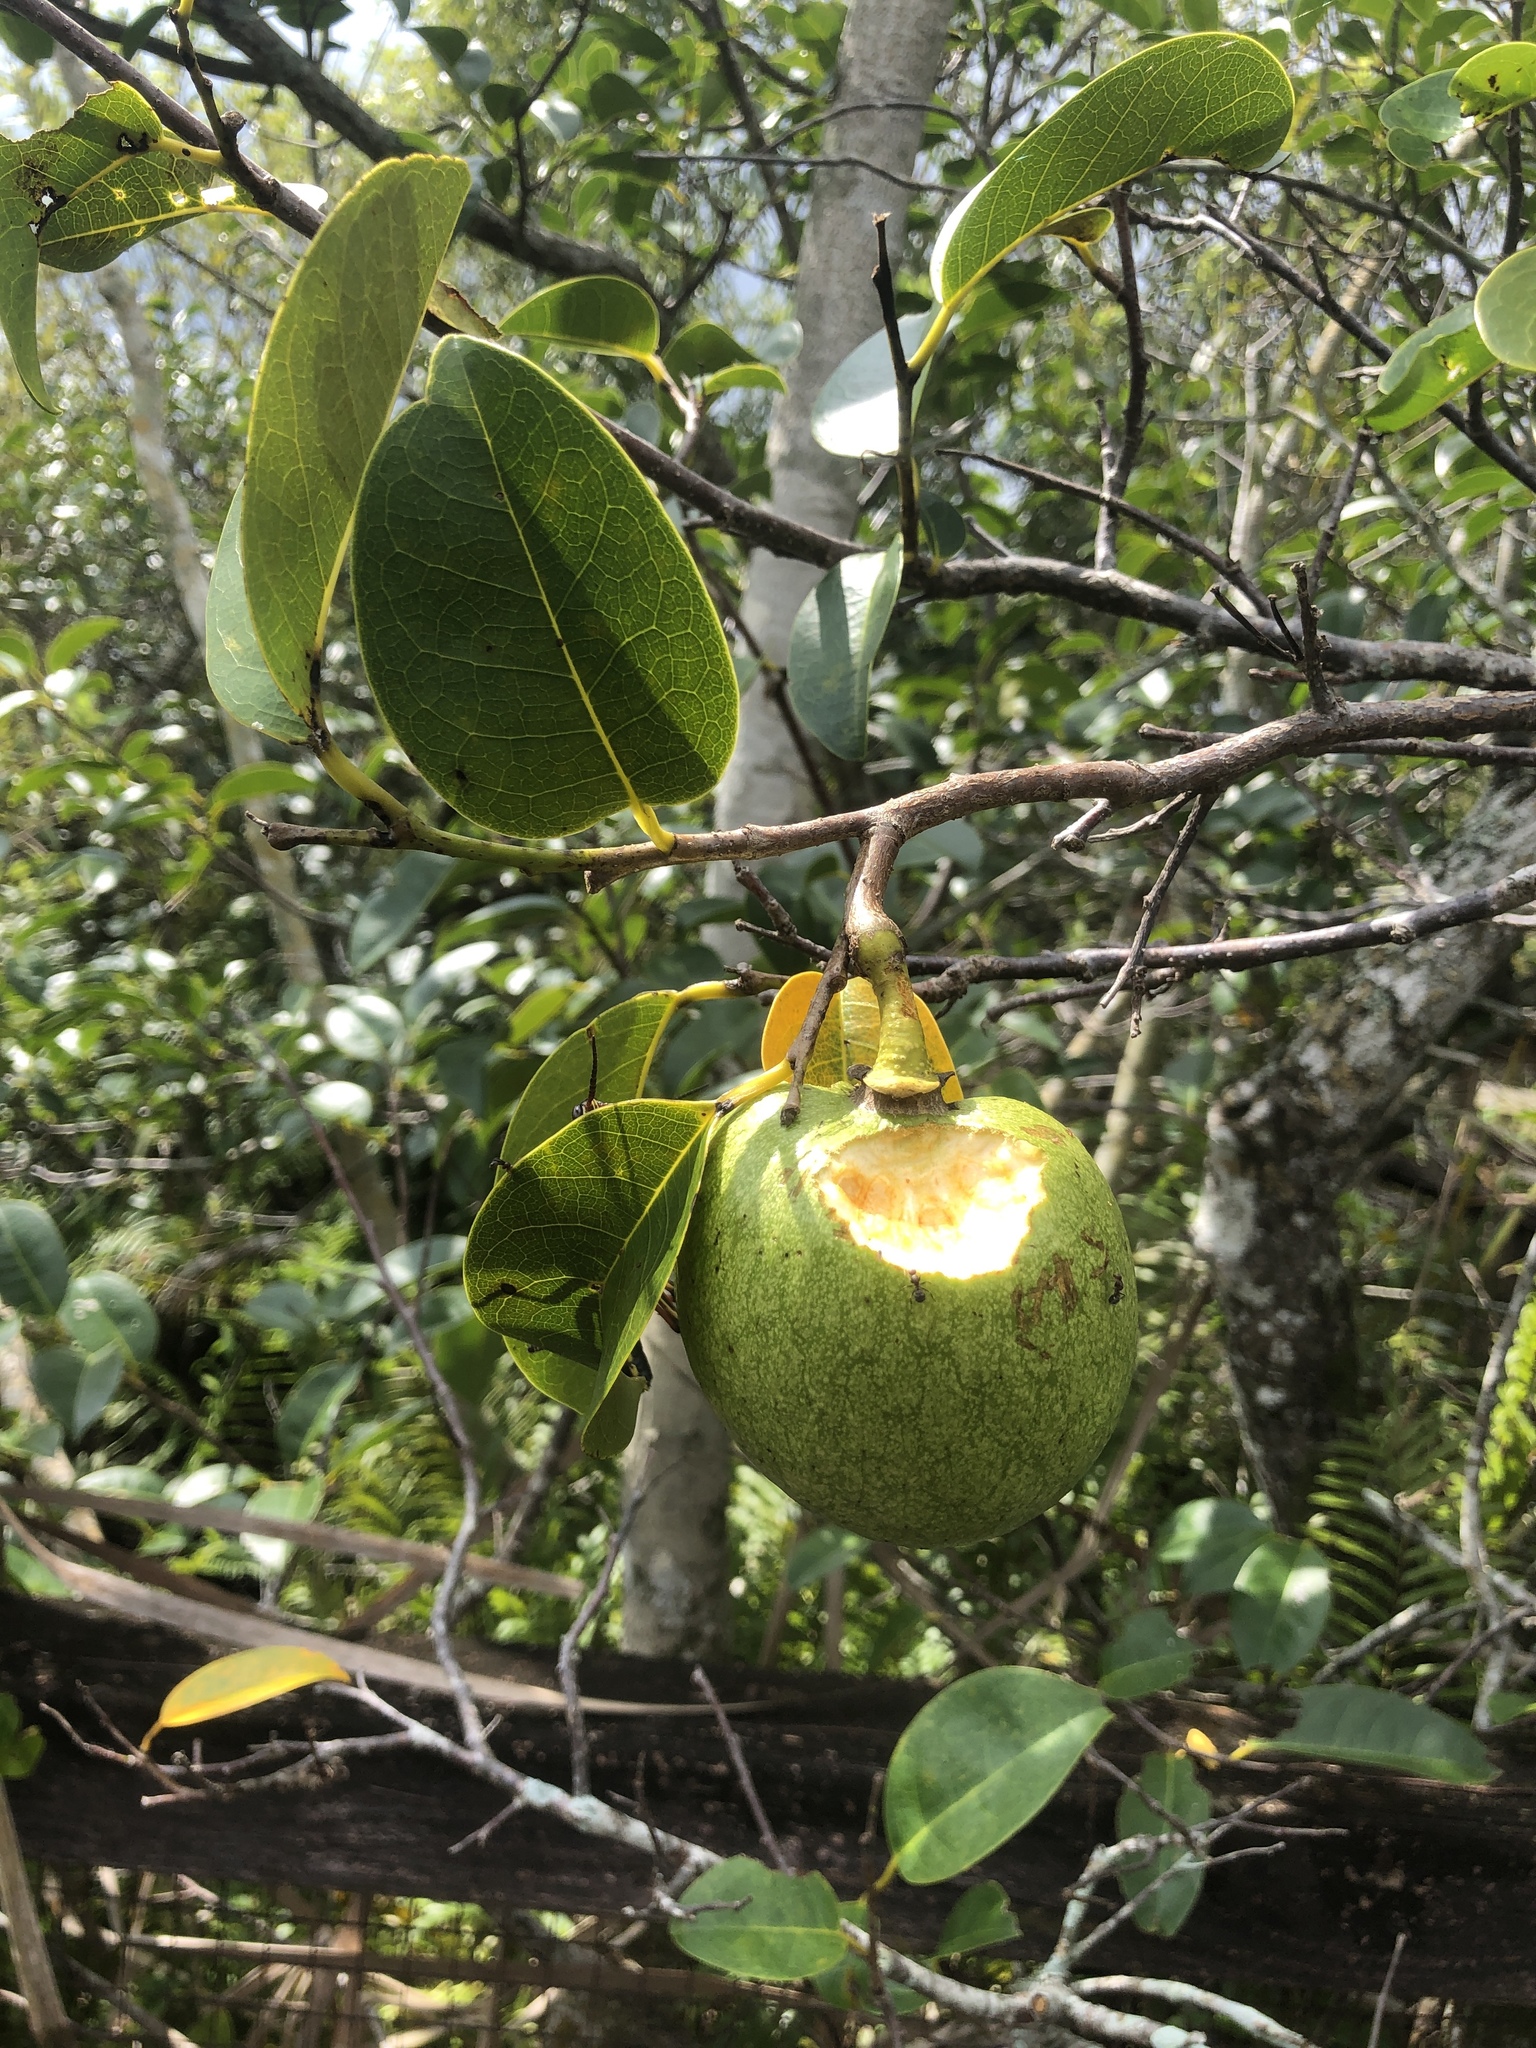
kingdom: Plantae
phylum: Tracheophyta
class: Magnoliopsida
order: Magnoliales
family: Annonaceae
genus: Annona
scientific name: Annona glabra
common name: Monkey apple
